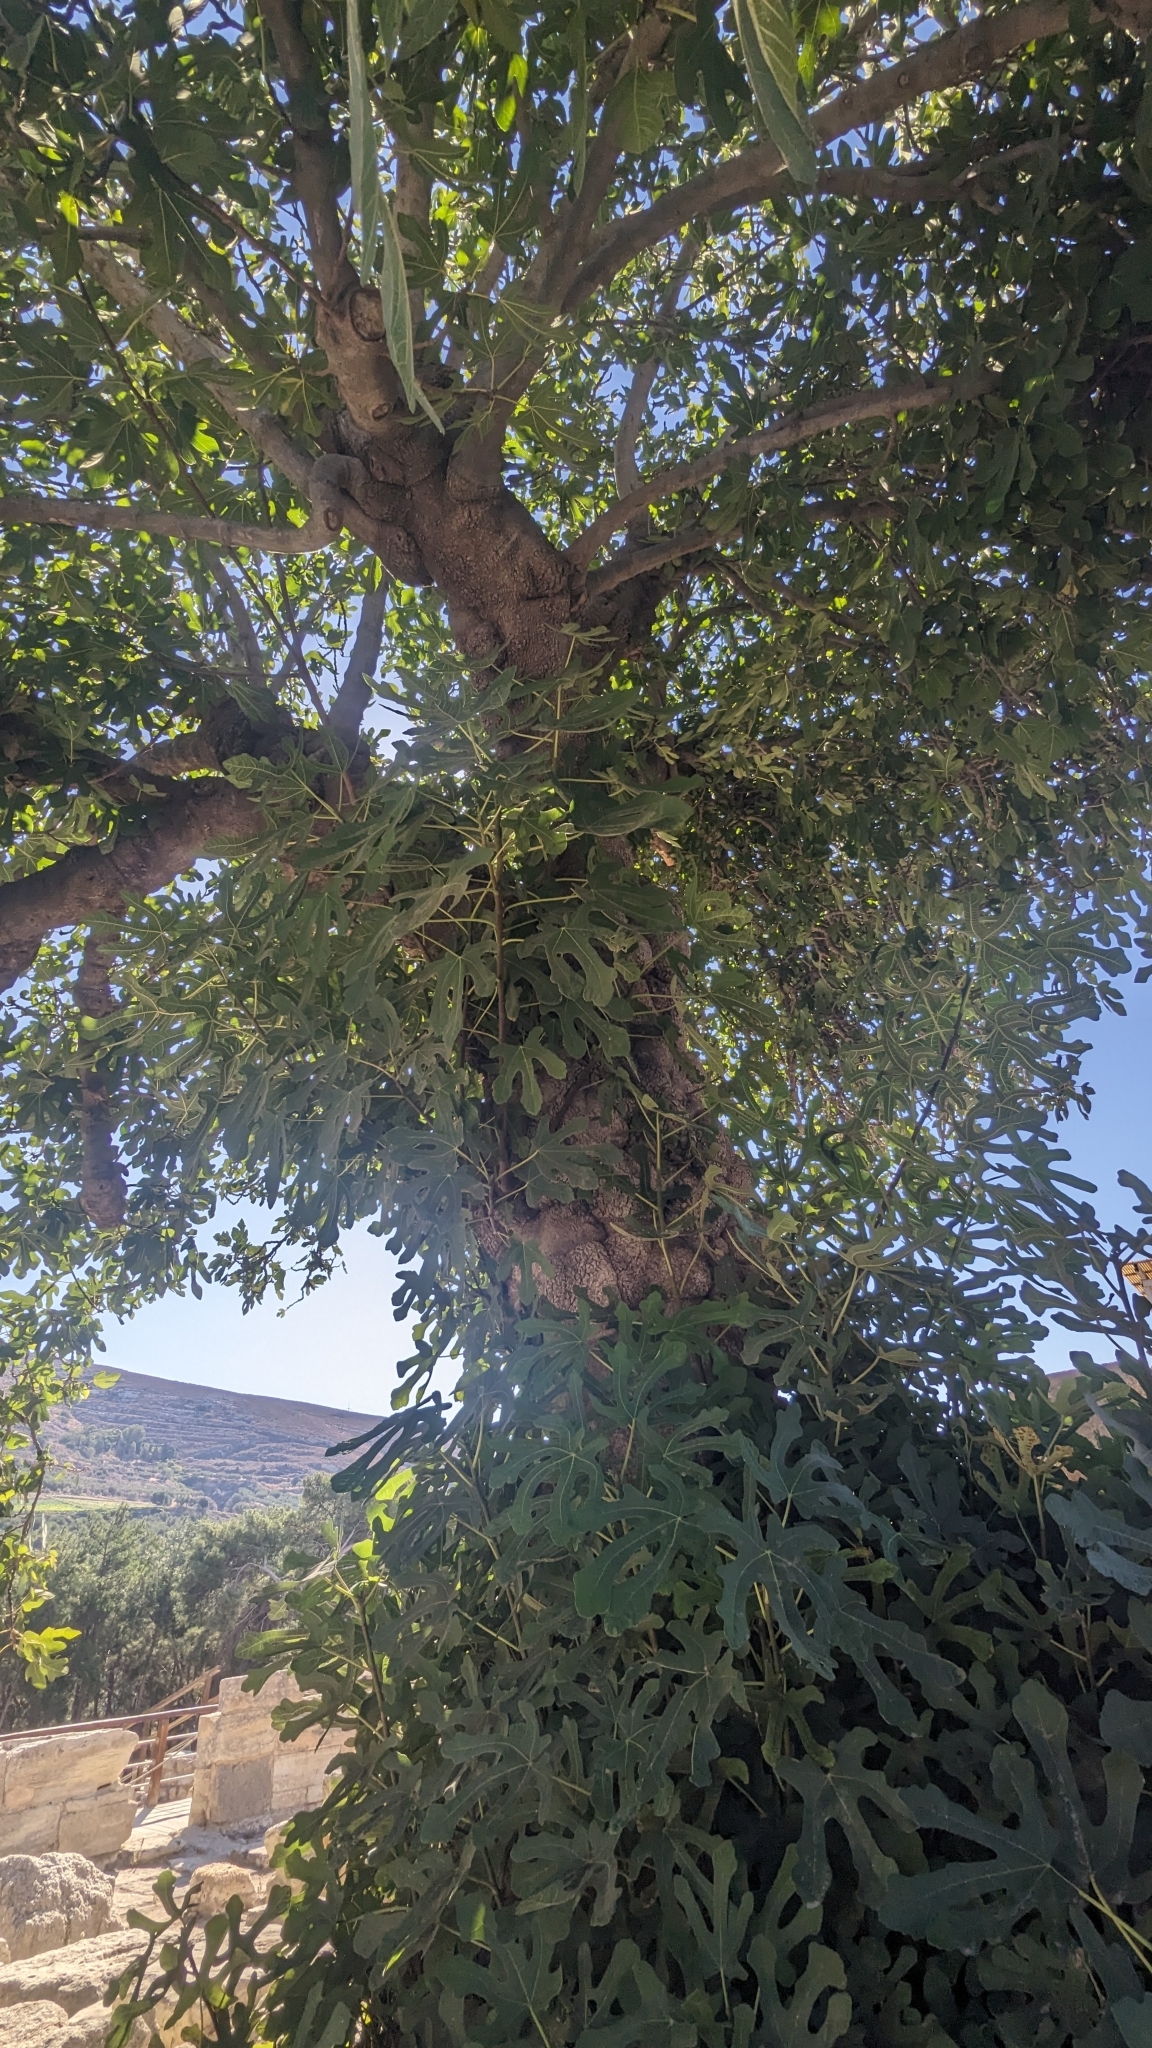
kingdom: Plantae
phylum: Tracheophyta
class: Magnoliopsida
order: Rosales
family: Moraceae
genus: Ficus
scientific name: Ficus carica
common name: Fig
